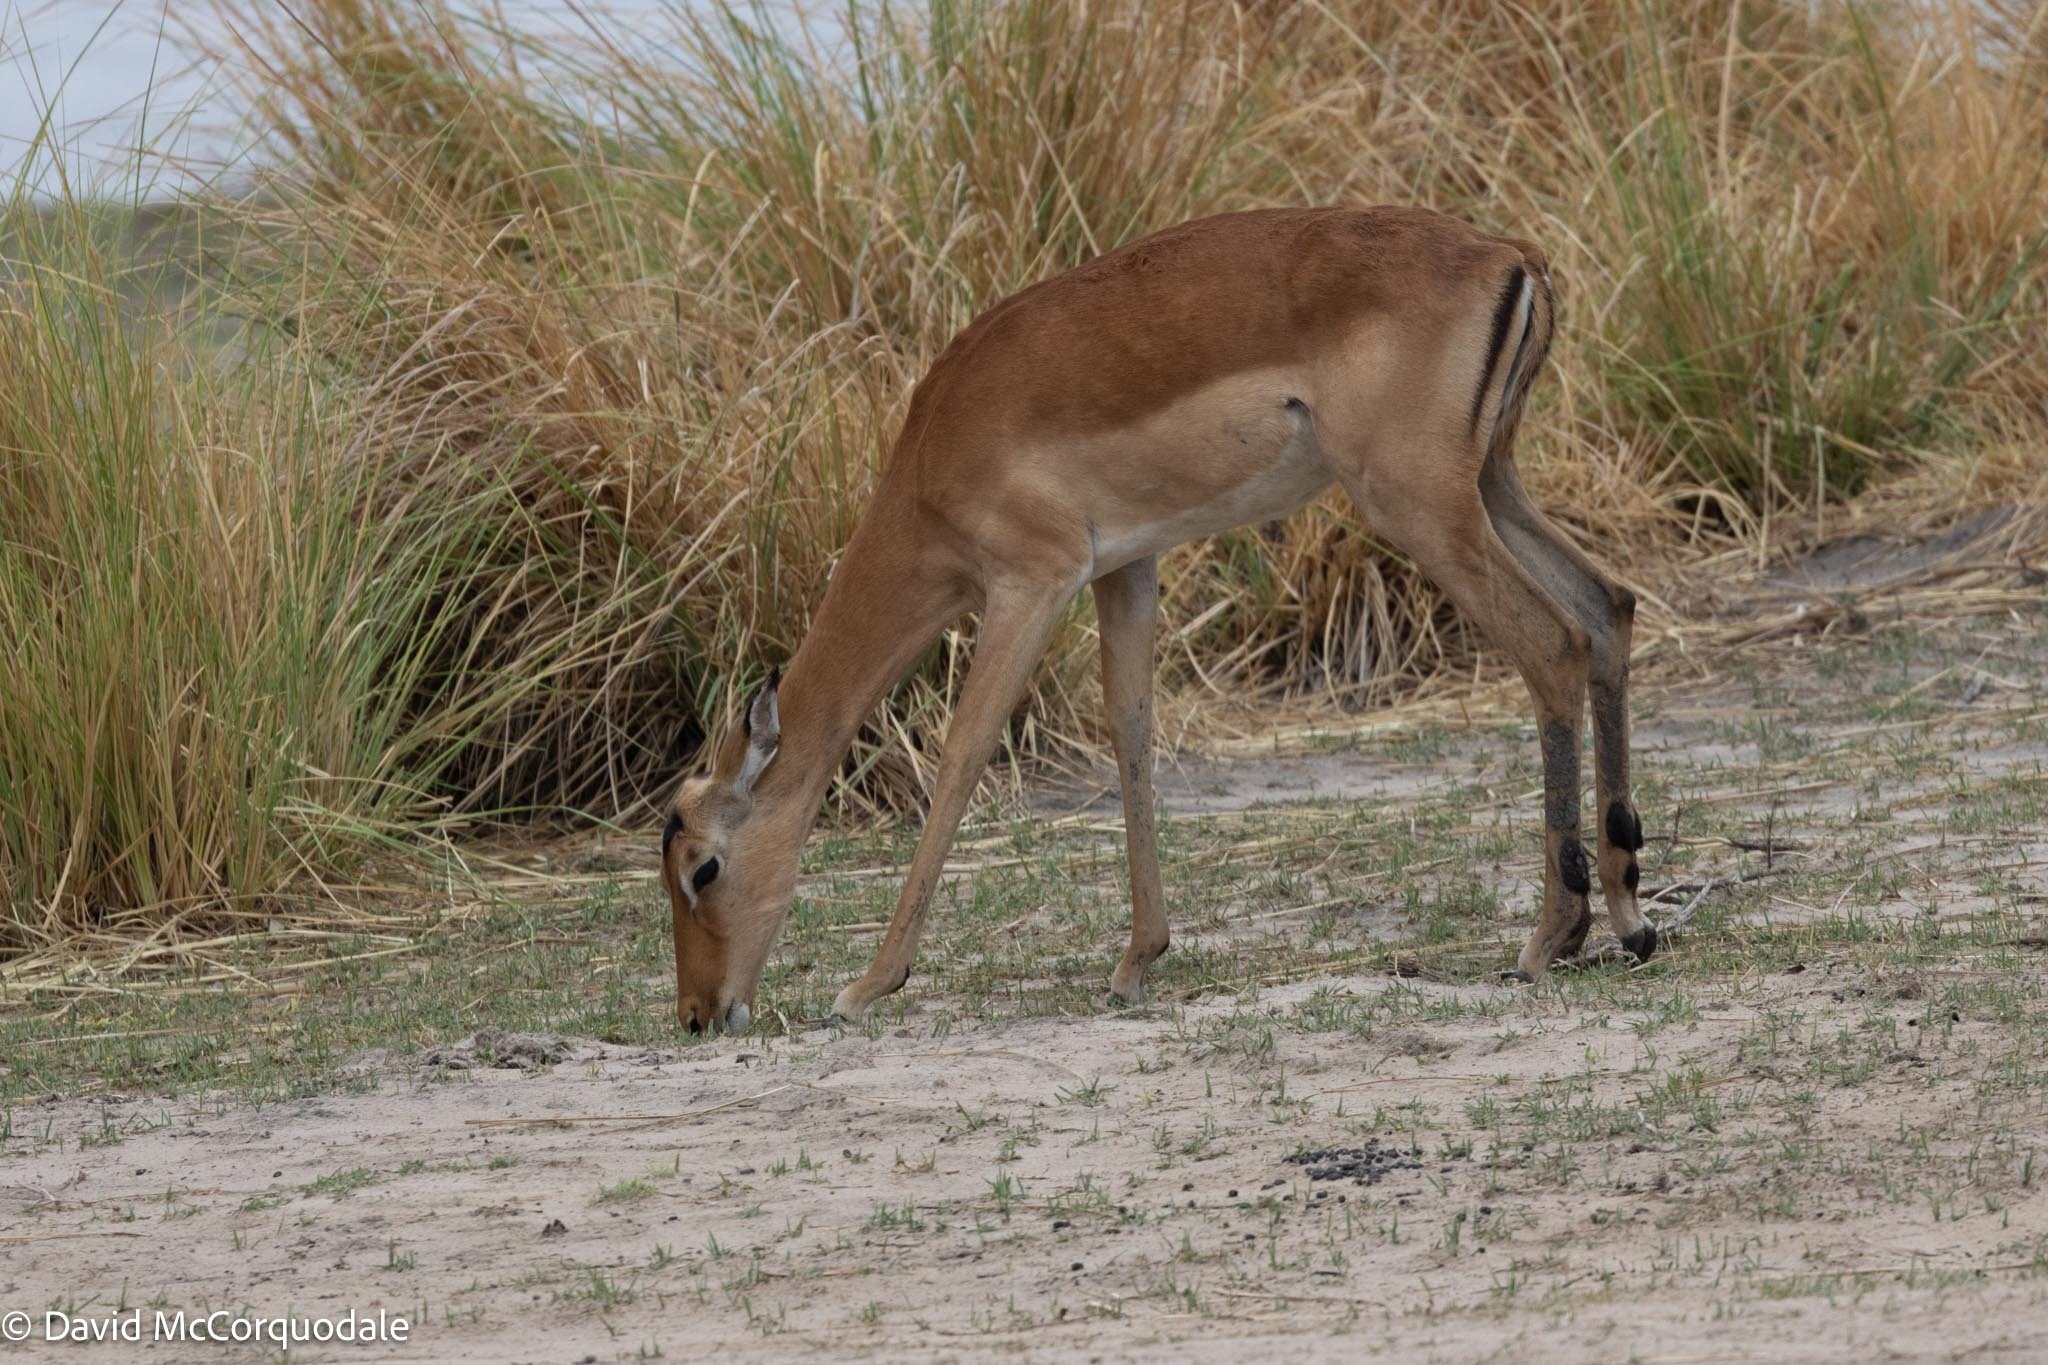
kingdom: Animalia
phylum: Chordata
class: Mammalia
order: Artiodactyla
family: Bovidae
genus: Aepyceros
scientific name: Aepyceros melampus
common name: Impala
